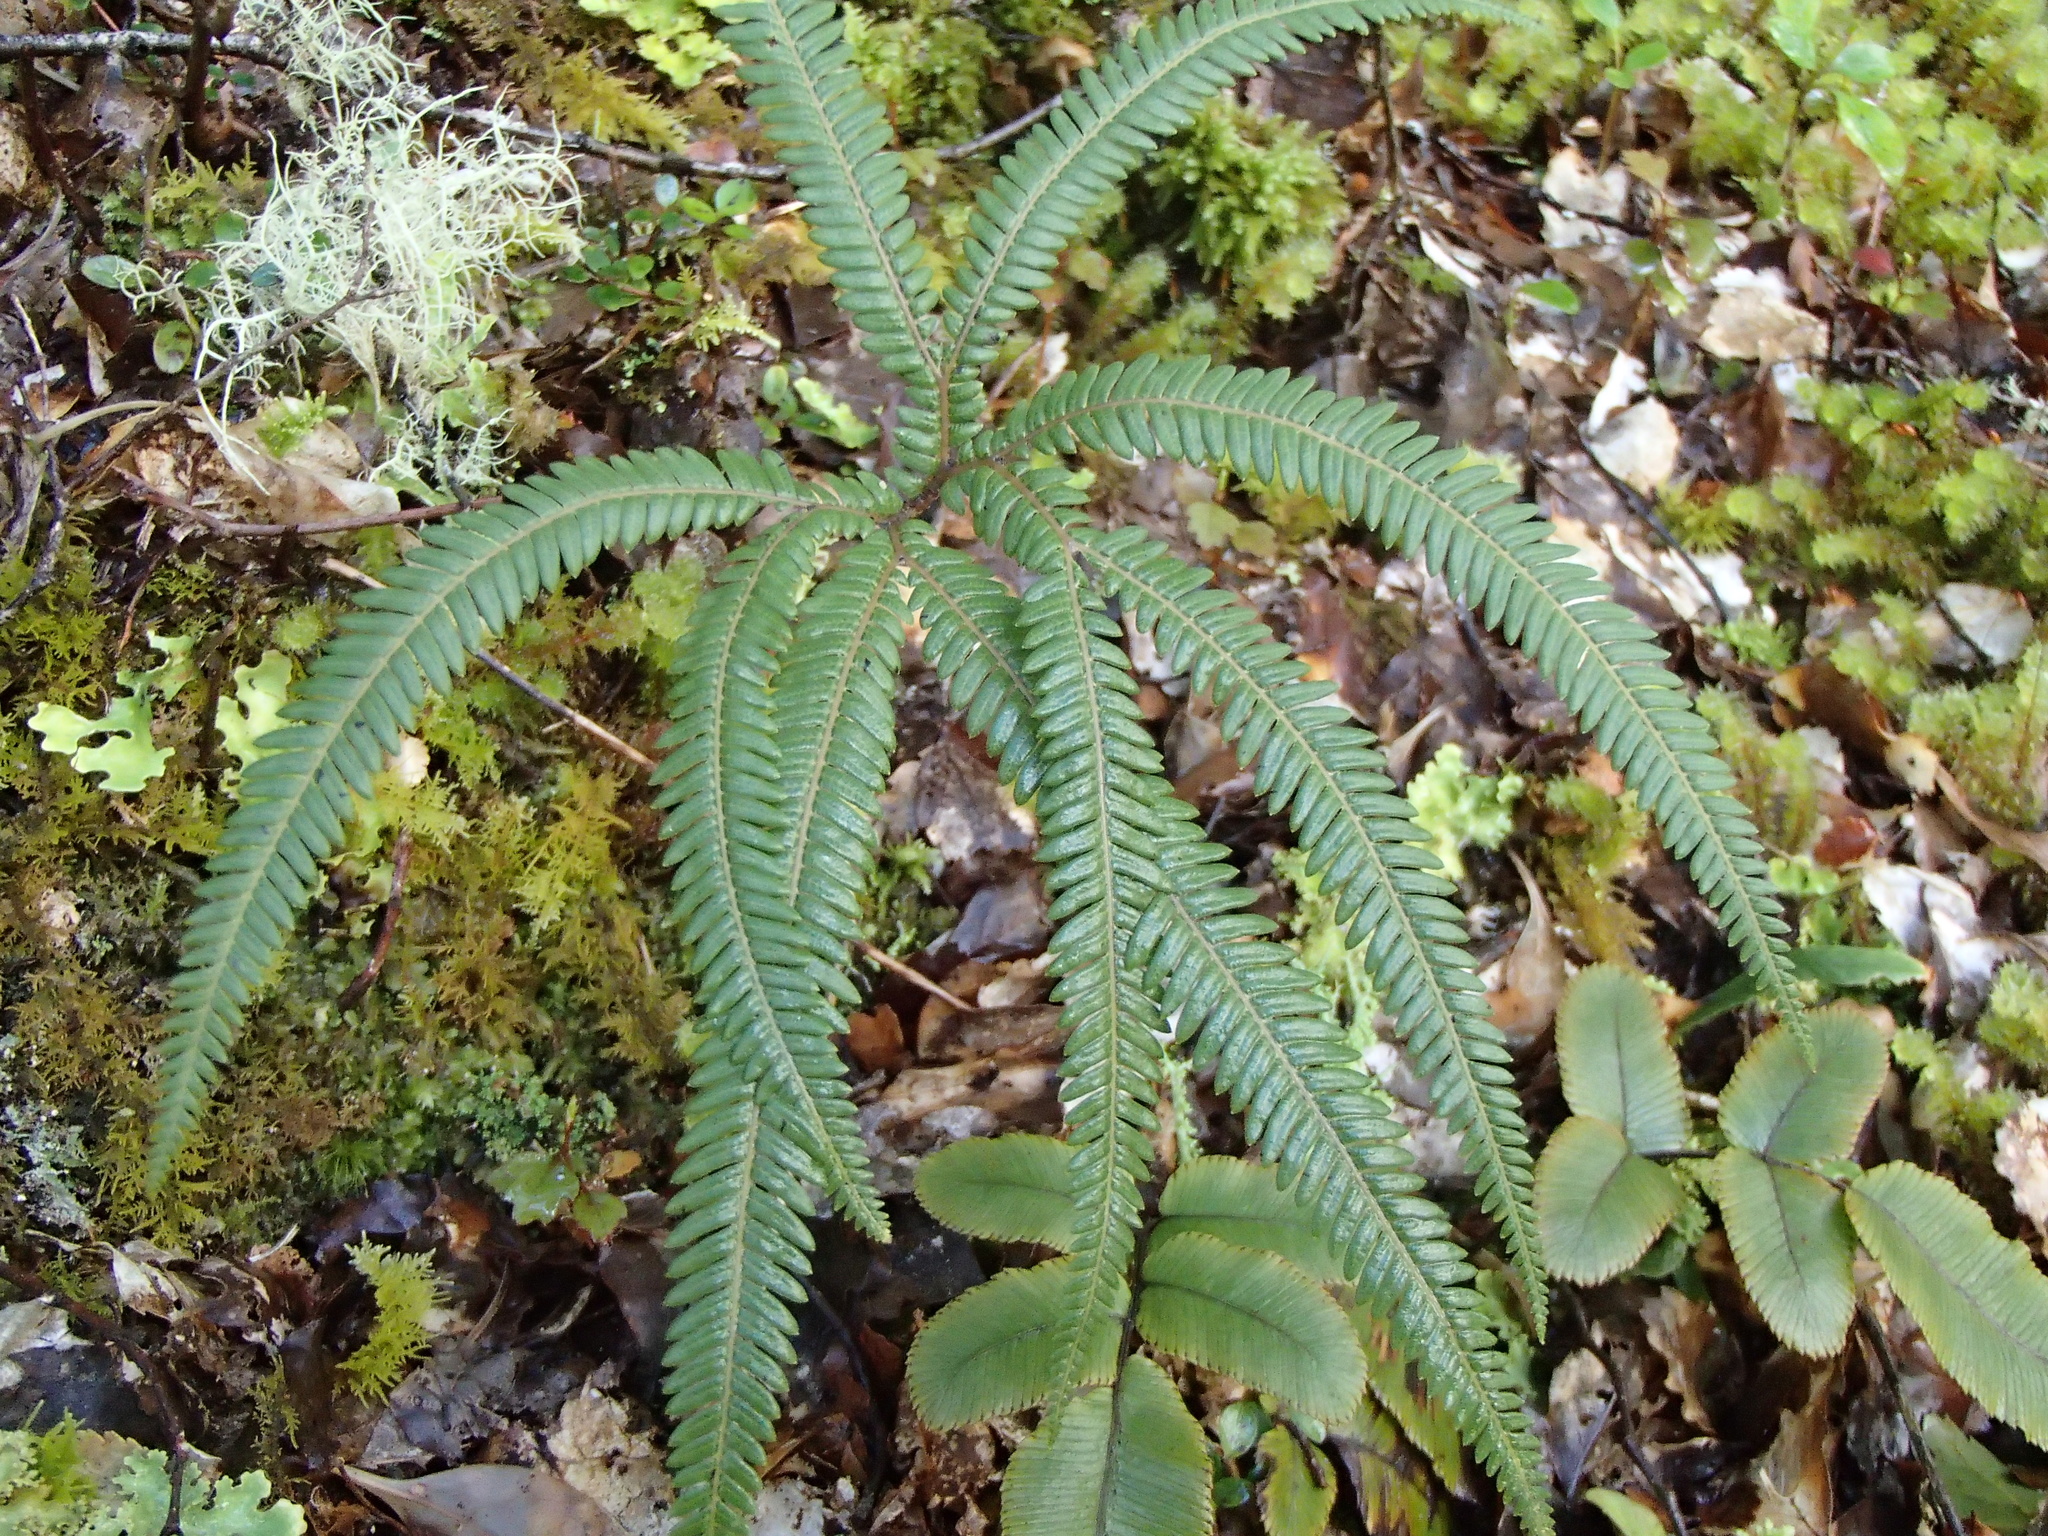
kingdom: Plantae
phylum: Tracheophyta
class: Polypodiopsida
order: Gleicheniales
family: Gleicheniaceae
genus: Sticherus
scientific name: Sticherus cunninghamii
